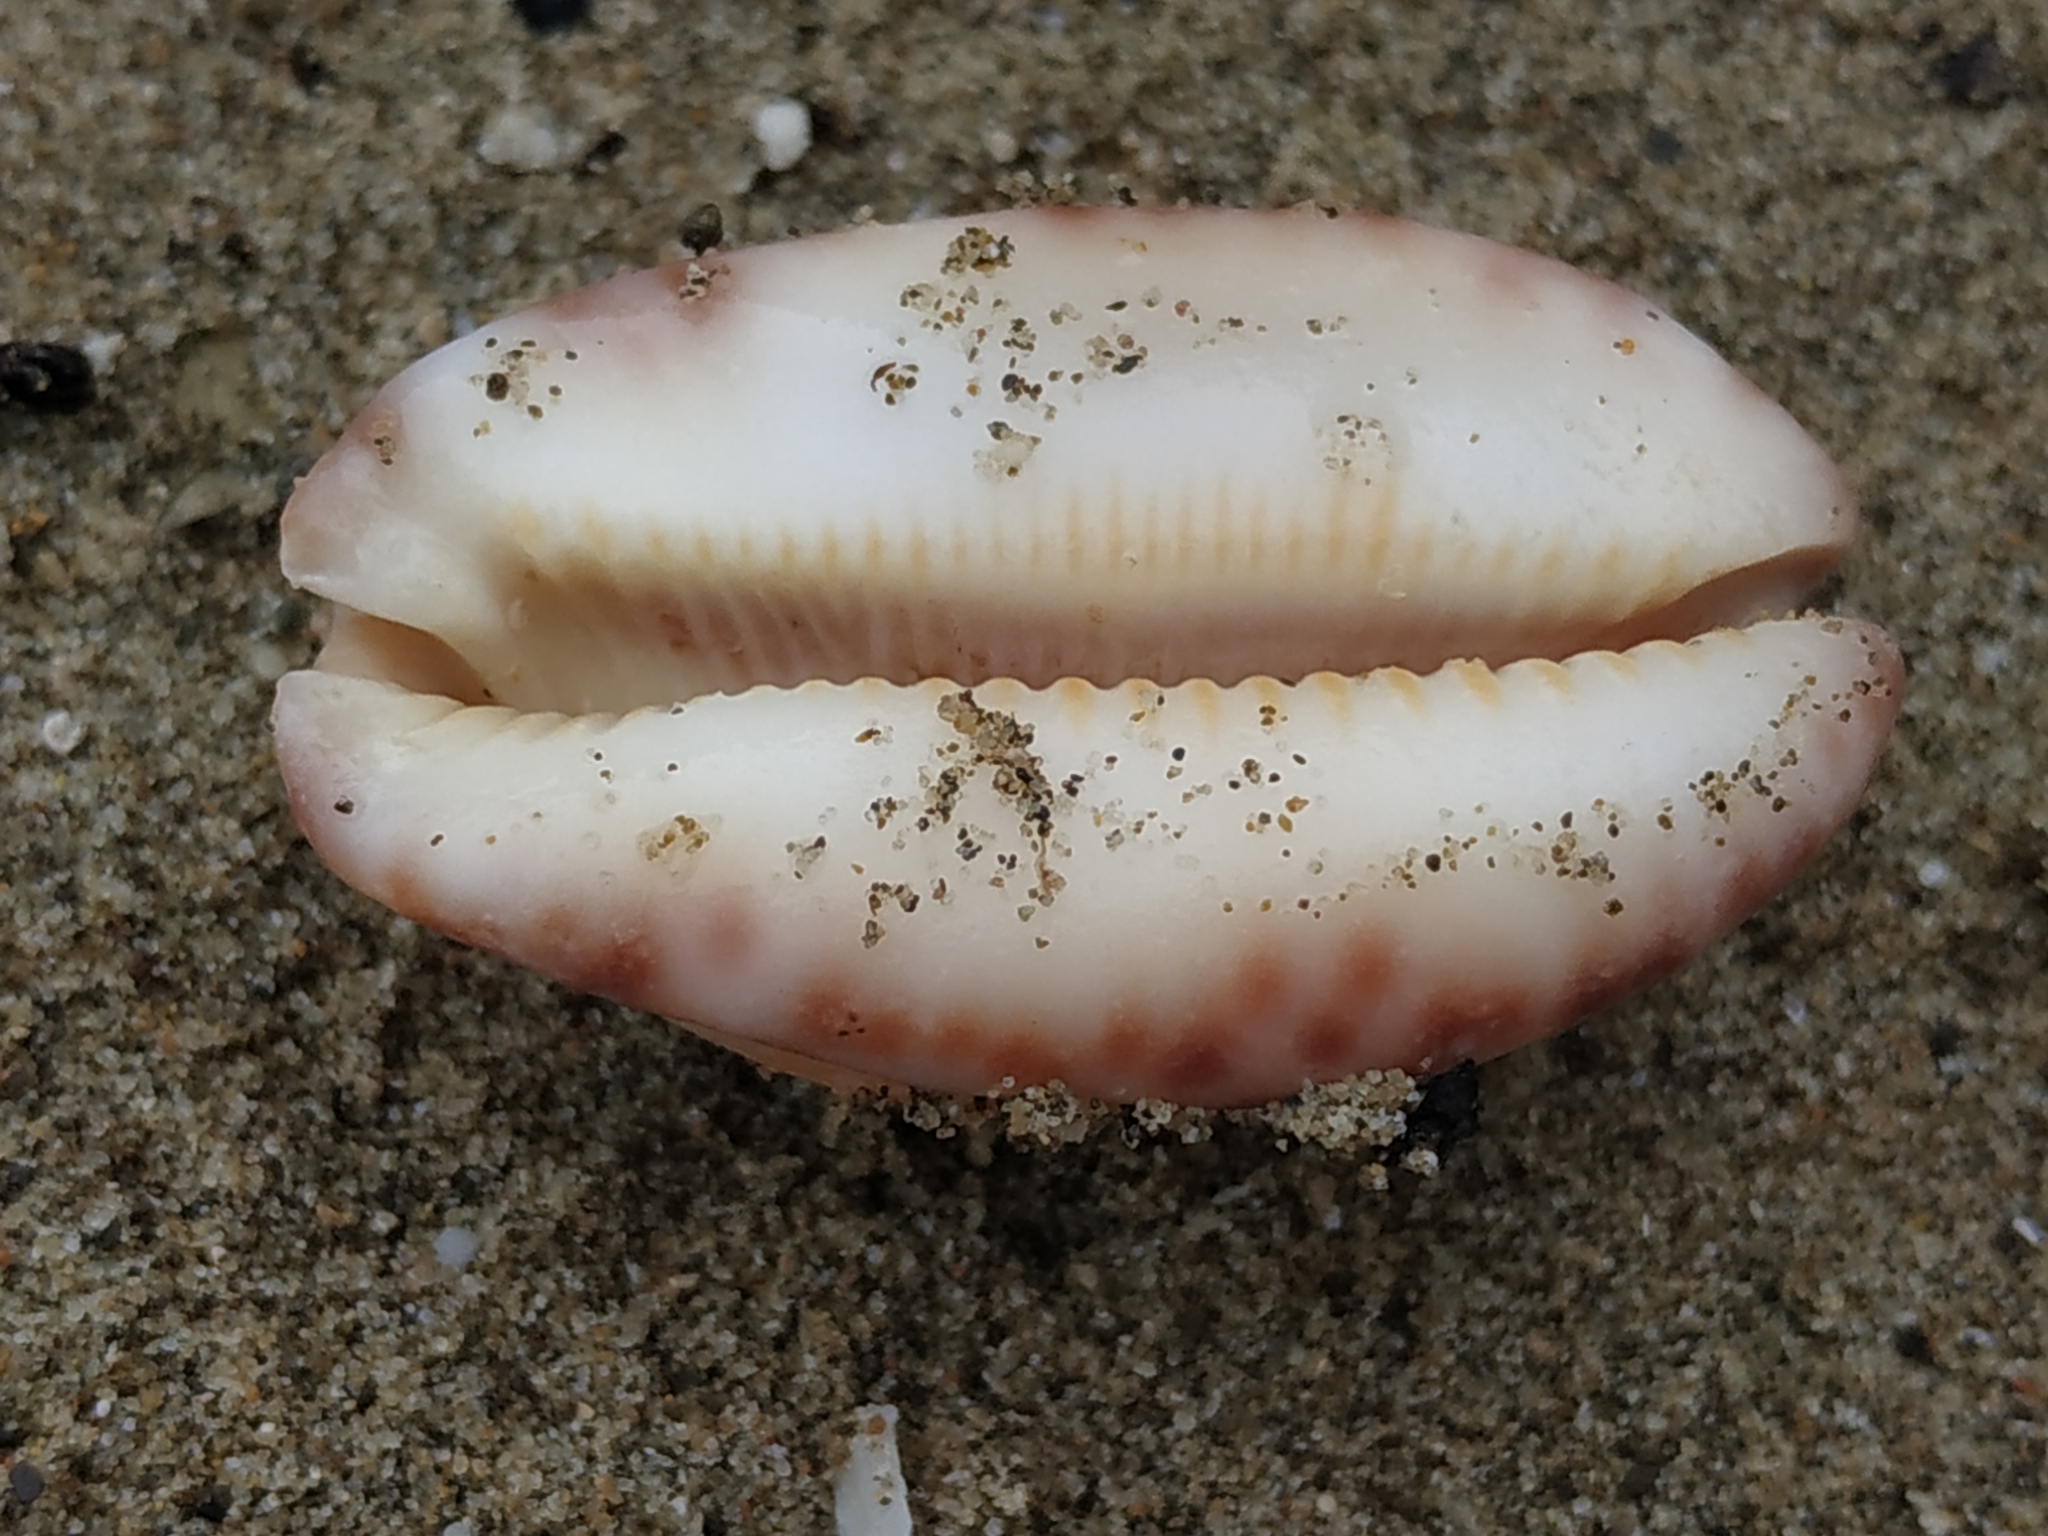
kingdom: Animalia
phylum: Mollusca
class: Gastropoda
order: Littorinimorpha
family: Cypraeidae
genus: Mauritia
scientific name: Mauritia arabica
